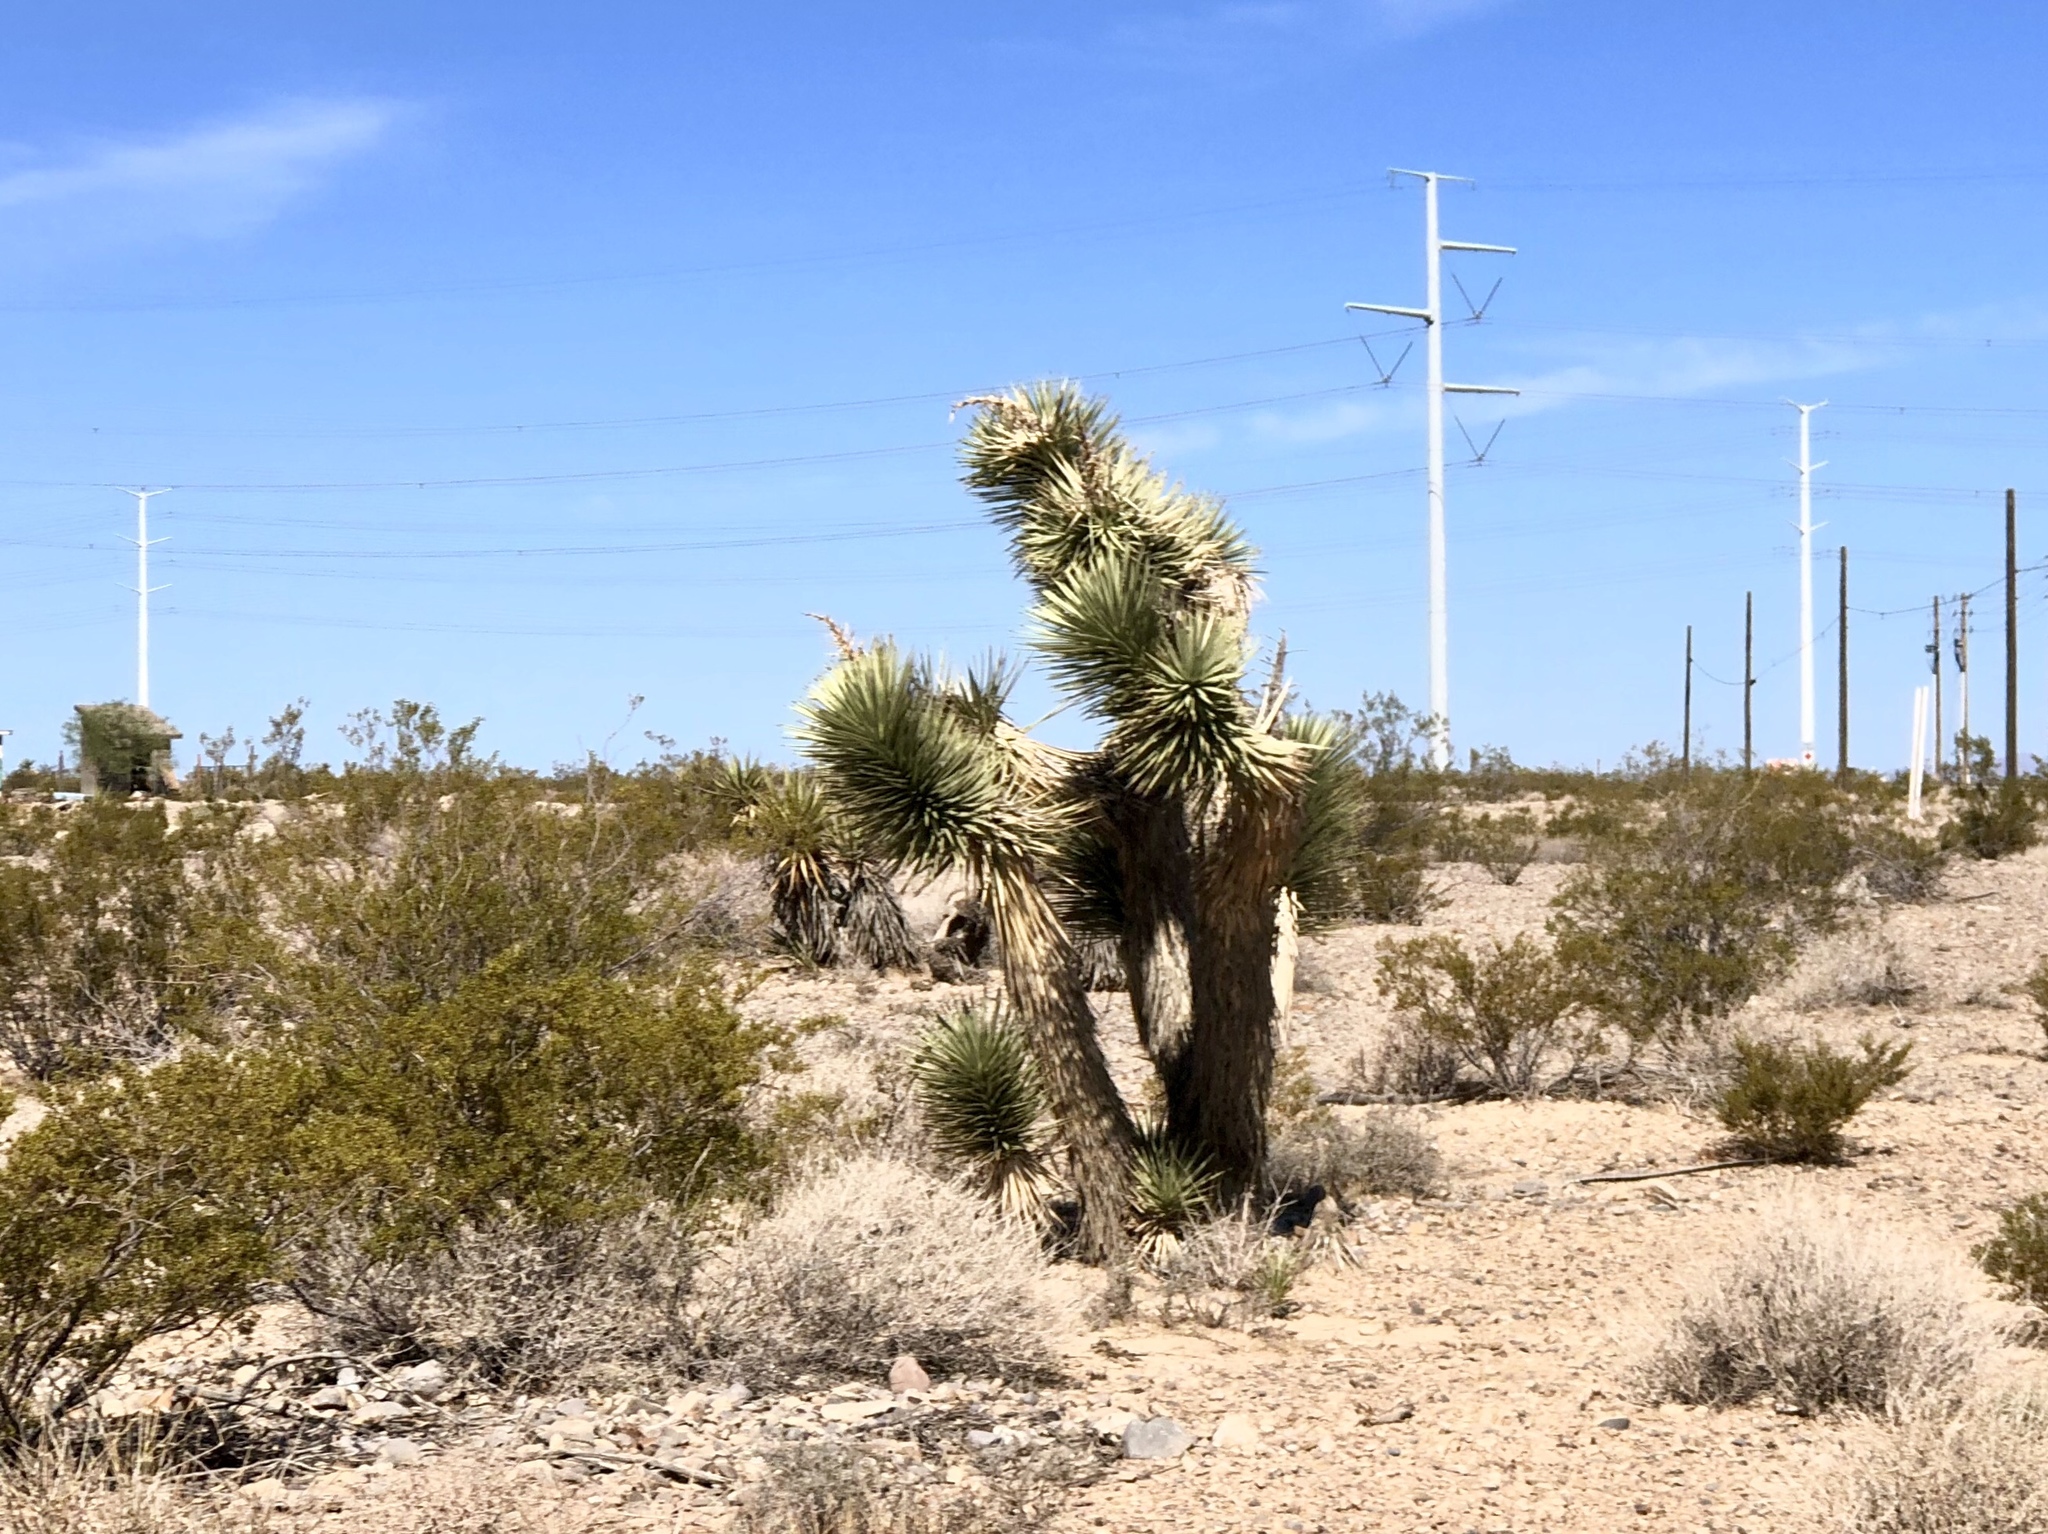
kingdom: Plantae
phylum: Tracheophyta
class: Liliopsida
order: Asparagales
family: Asparagaceae
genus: Yucca
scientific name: Yucca brevifolia
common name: Joshua tree
